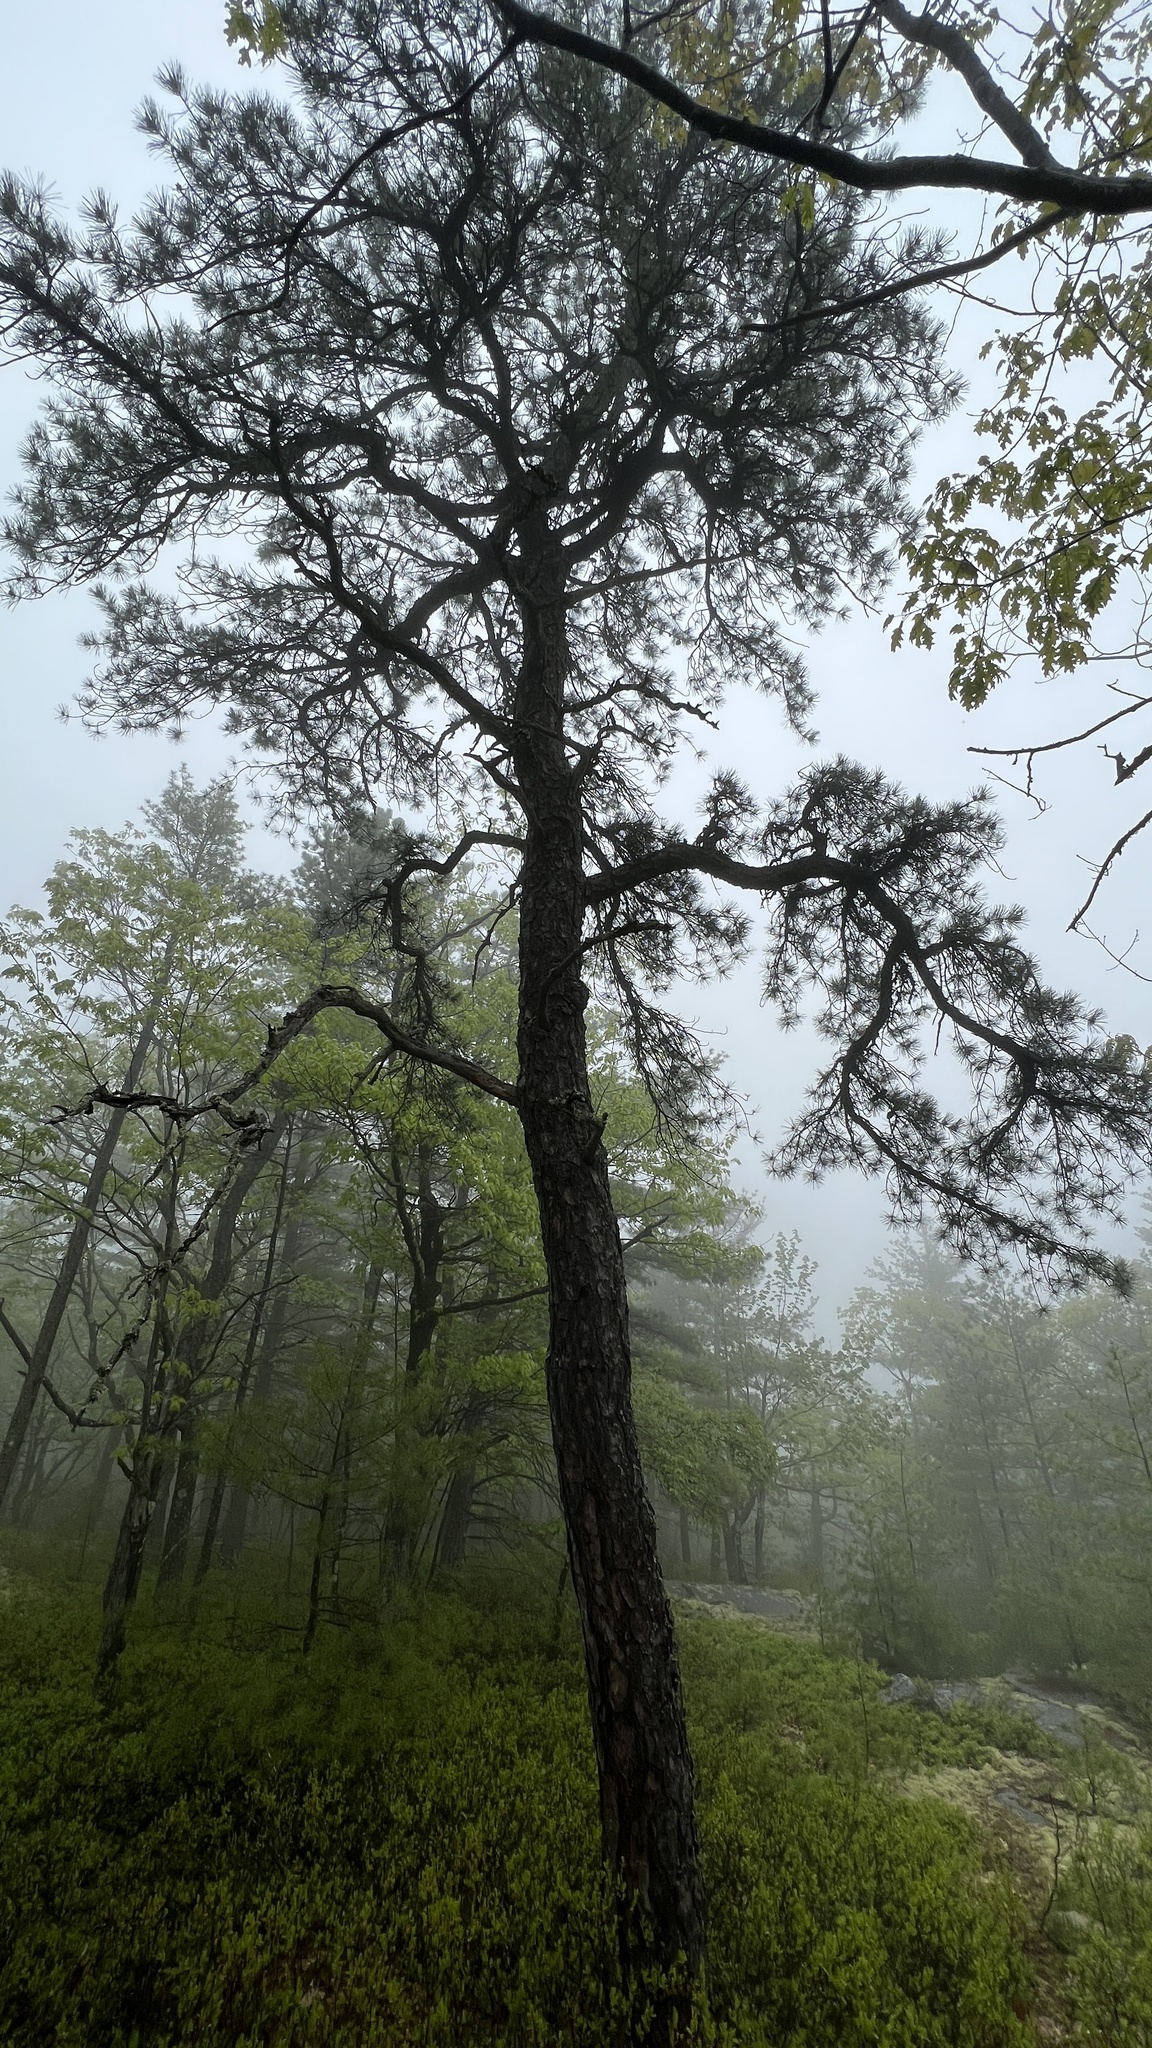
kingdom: Plantae
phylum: Tracheophyta
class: Pinopsida
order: Pinales
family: Pinaceae
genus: Pinus
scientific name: Pinus rigida
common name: Pitch pine
